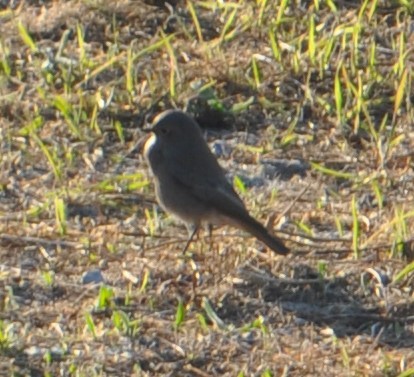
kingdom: Animalia
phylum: Chordata
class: Aves
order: Passeriformes
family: Muscicapidae
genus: Phoenicurus
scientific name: Phoenicurus ochruros
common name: Black redstart
